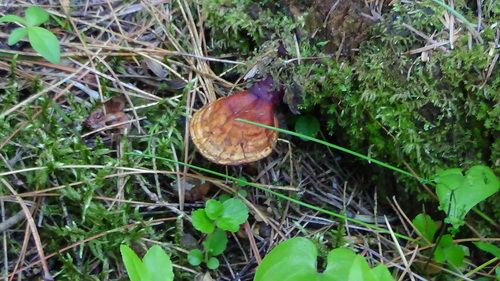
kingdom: Fungi
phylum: Basidiomycota
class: Agaricomycetes
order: Polyporales
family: Polyporaceae
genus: Ganoderma
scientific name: Ganoderma lucidum
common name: Lacquered bracket
